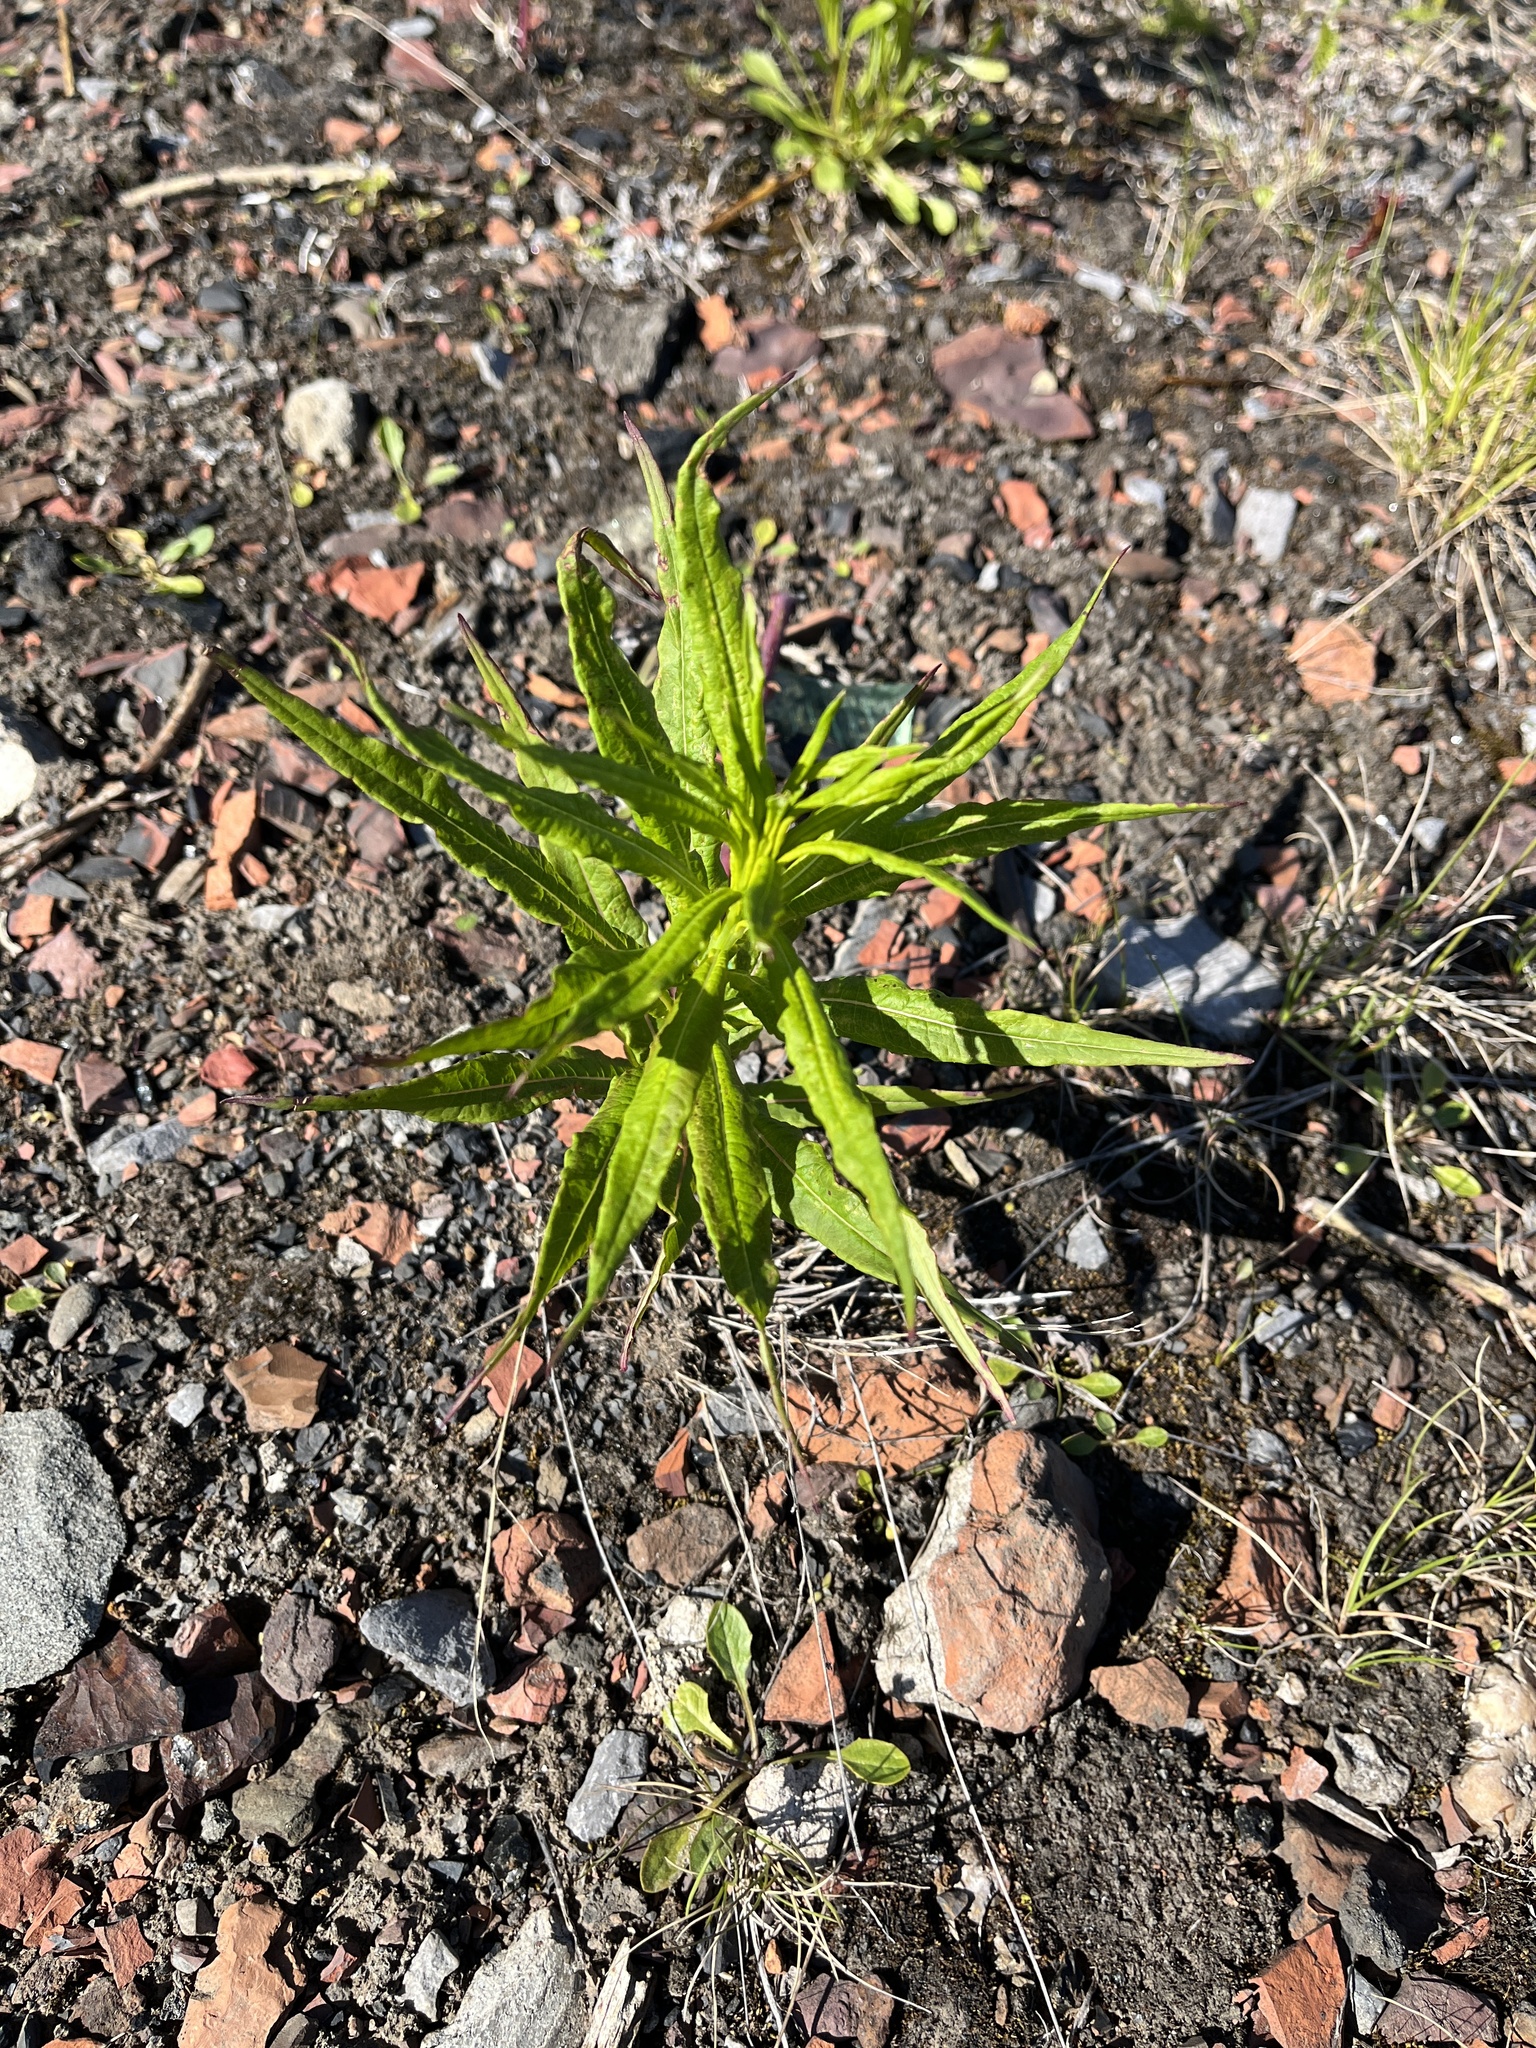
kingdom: Plantae
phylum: Tracheophyta
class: Magnoliopsida
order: Myrtales
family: Onagraceae
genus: Chamaenerion
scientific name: Chamaenerion angustifolium
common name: Fireweed
